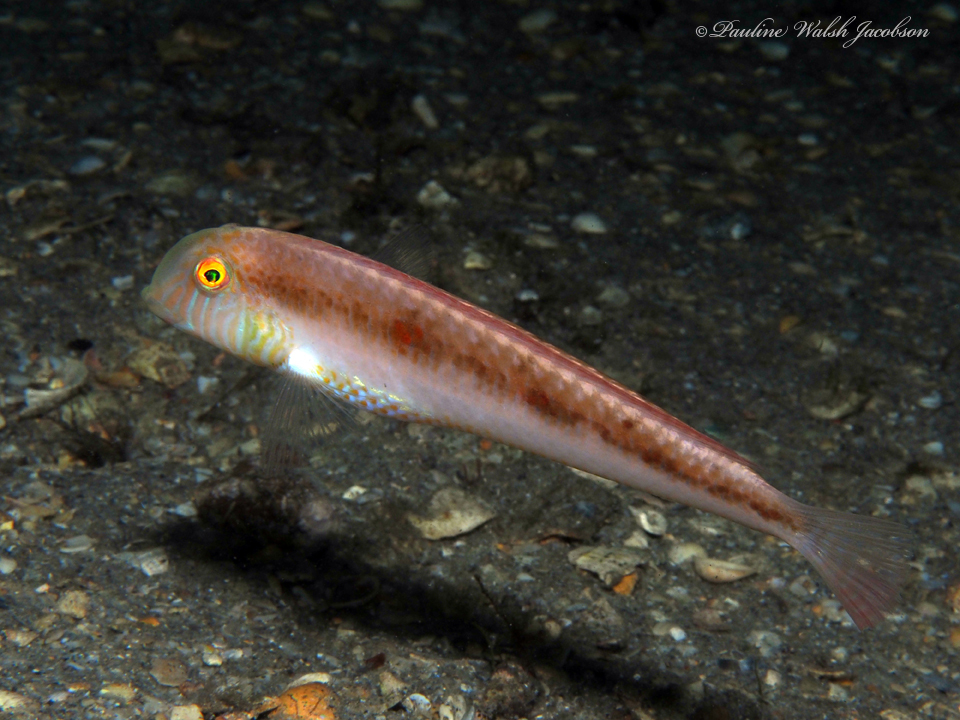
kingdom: Animalia
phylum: Chordata
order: Perciformes
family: Labridae
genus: Xyrichtys
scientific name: Xyrichtys novacula
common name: Pearly razorfish
